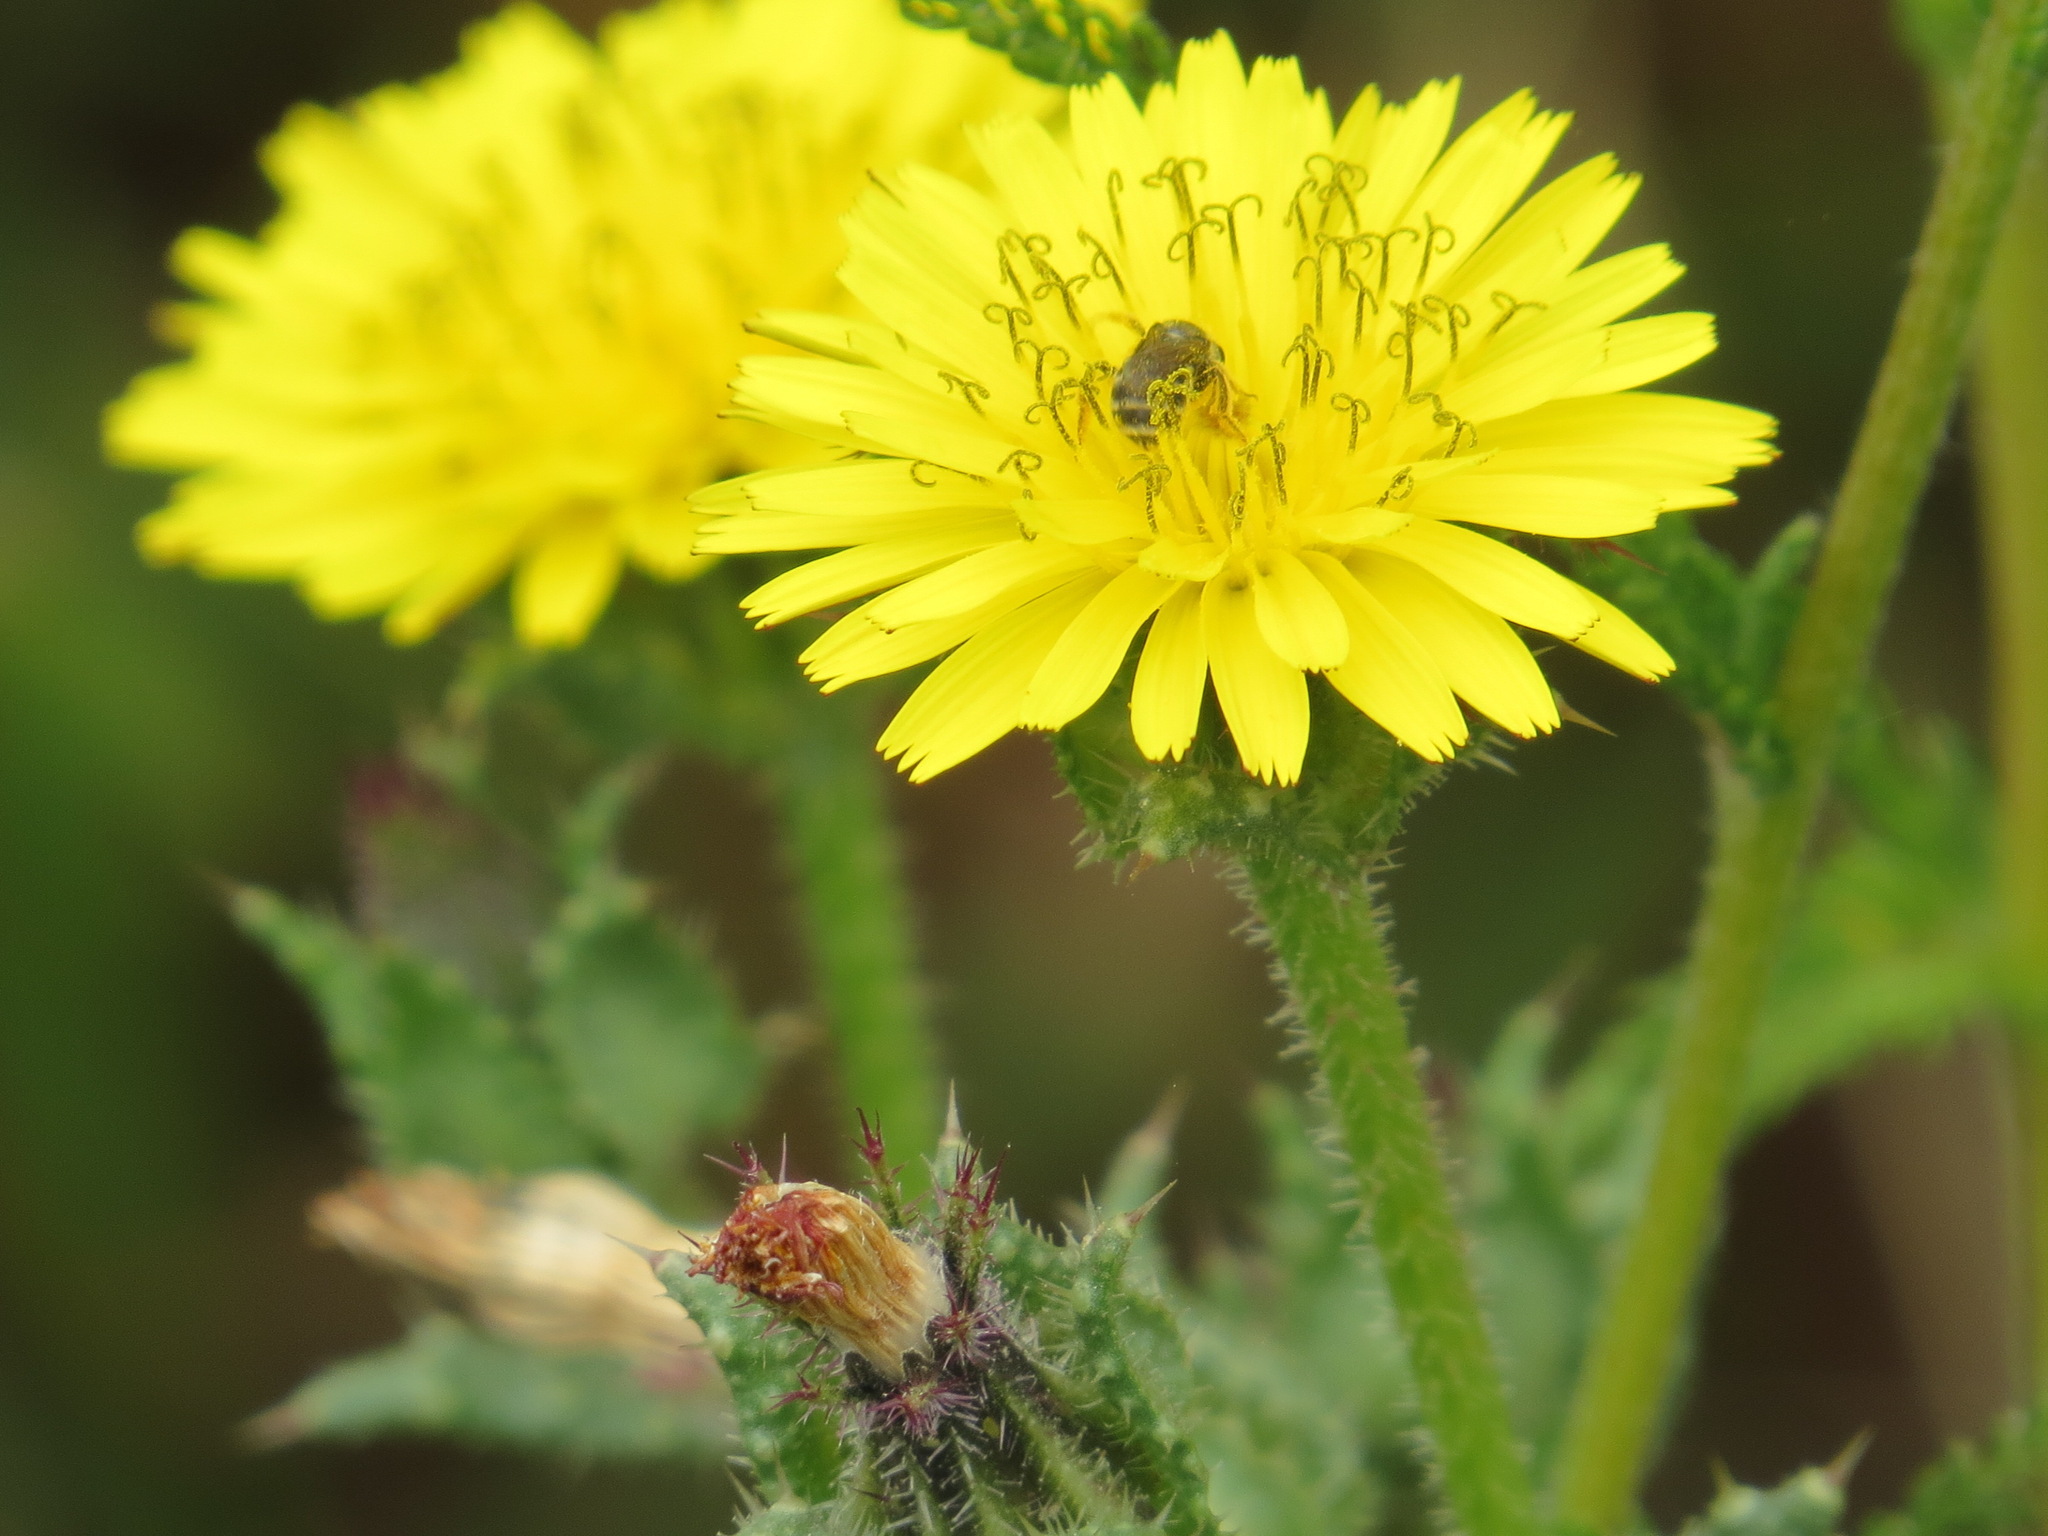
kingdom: Plantae
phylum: Tracheophyta
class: Magnoliopsida
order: Asterales
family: Asteraceae
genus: Helminthotheca
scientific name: Helminthotheca echioides
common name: Ox-tongue
